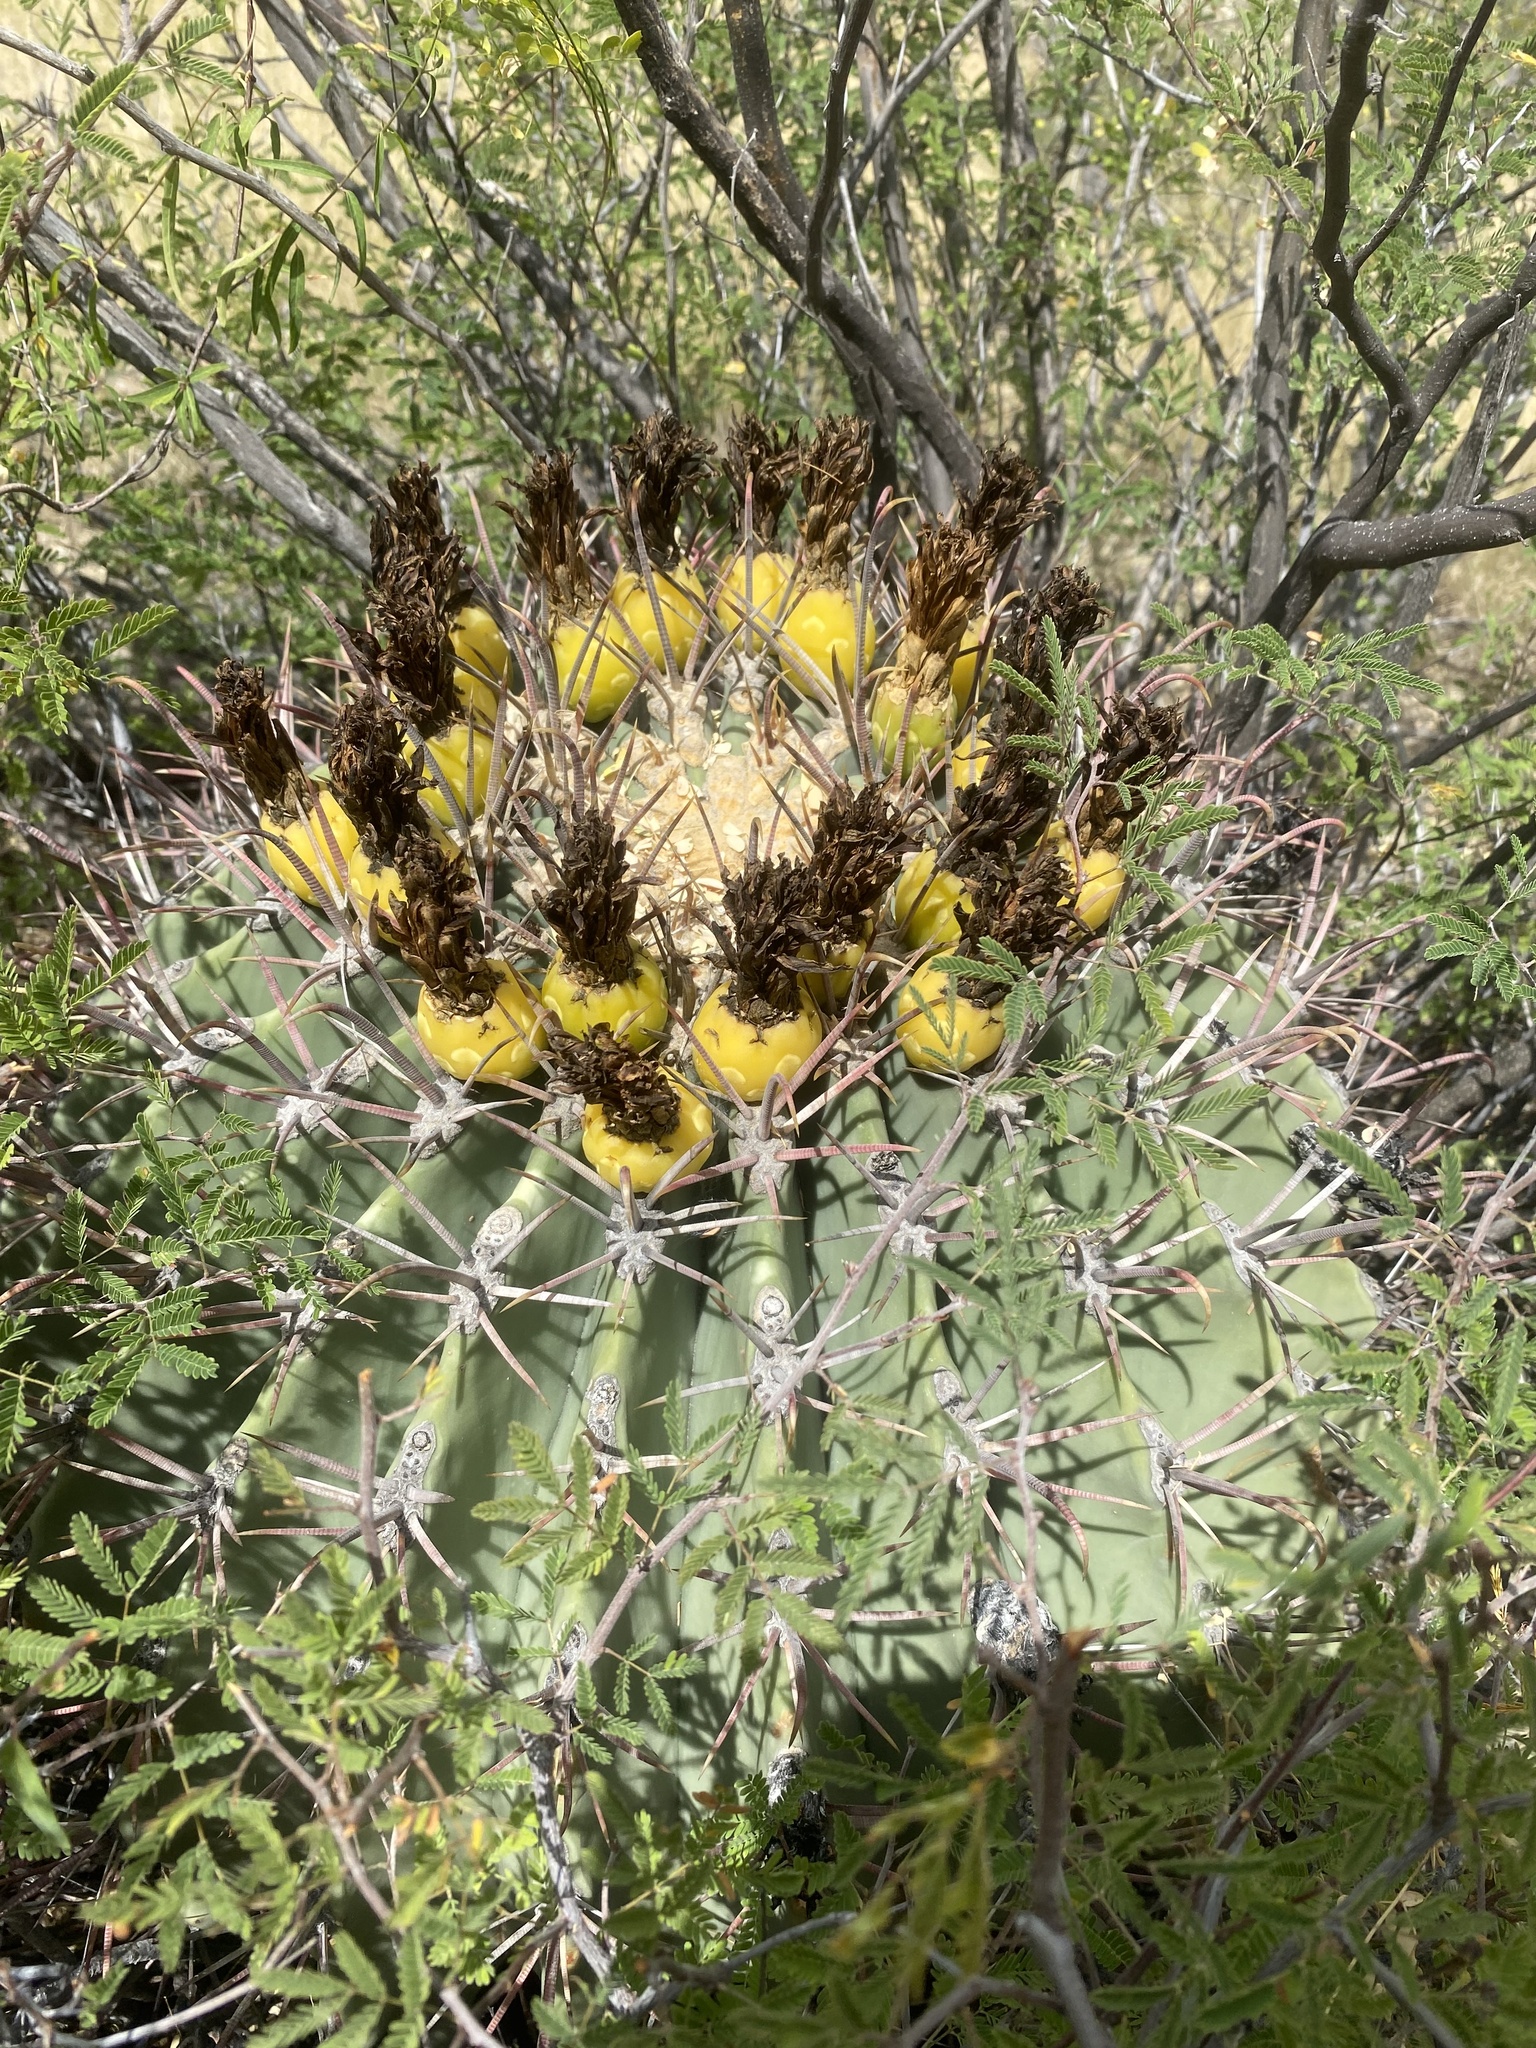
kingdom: Plantae
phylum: Tracheophyta
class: Magnoliopsida
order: Caryophyllales
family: Cactaceae
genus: Ferocactus
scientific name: Ferocactus emoryi
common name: Emory's barrel cactus
